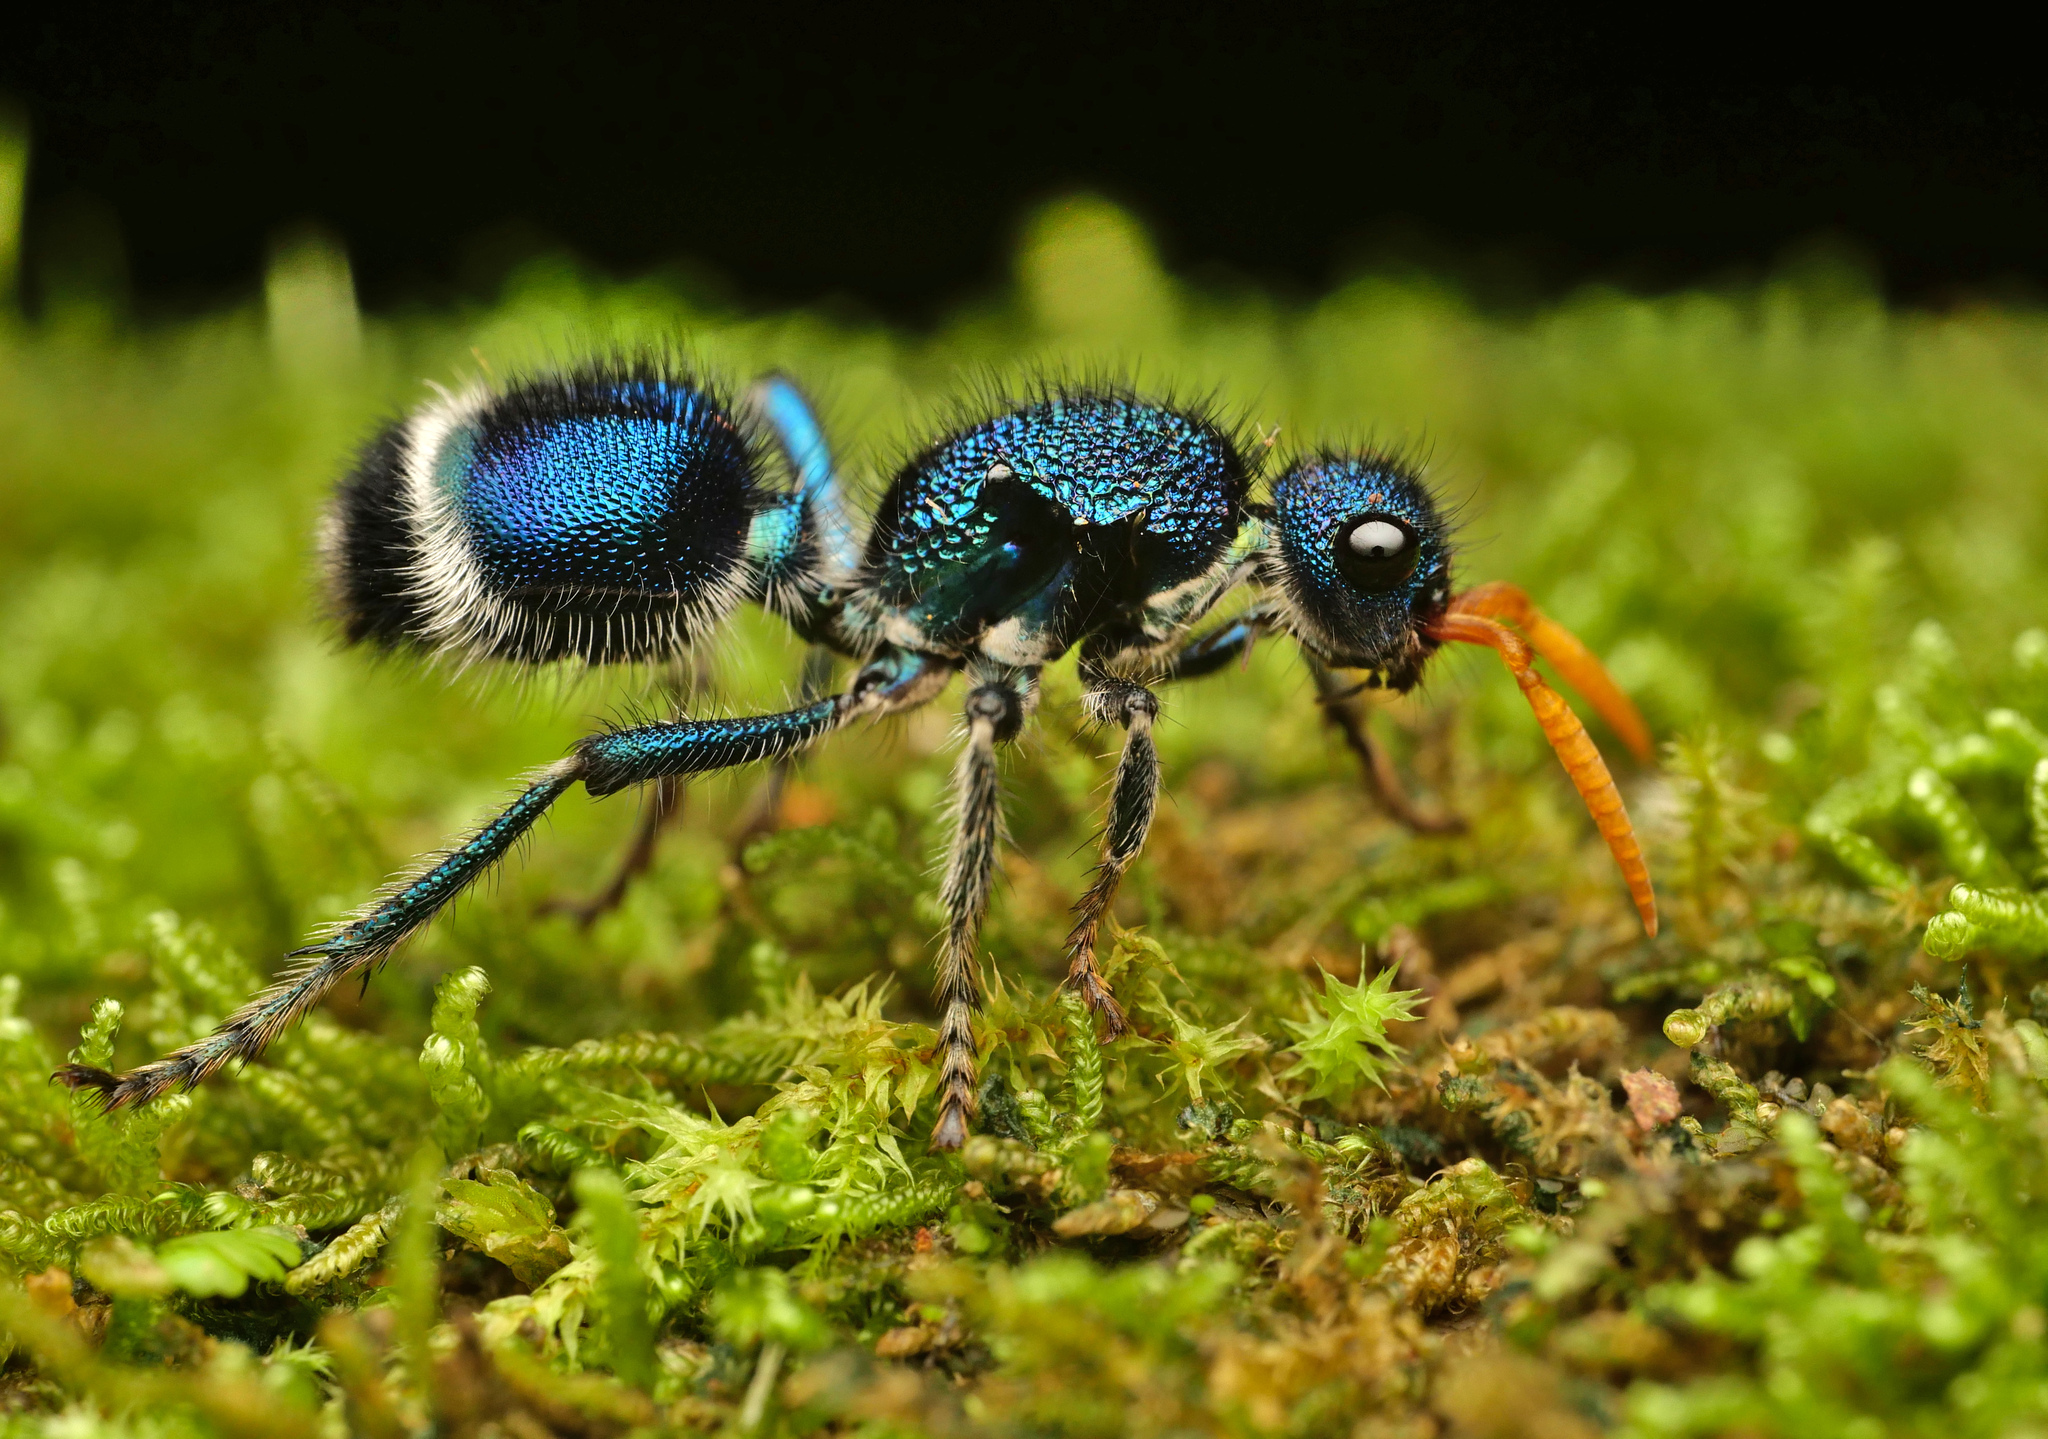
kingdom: Animalia
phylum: Arthropoda
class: Insecta
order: Hymenoptera
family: Mutillidae
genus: Ephutomorpha
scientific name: Ephutomorpha
